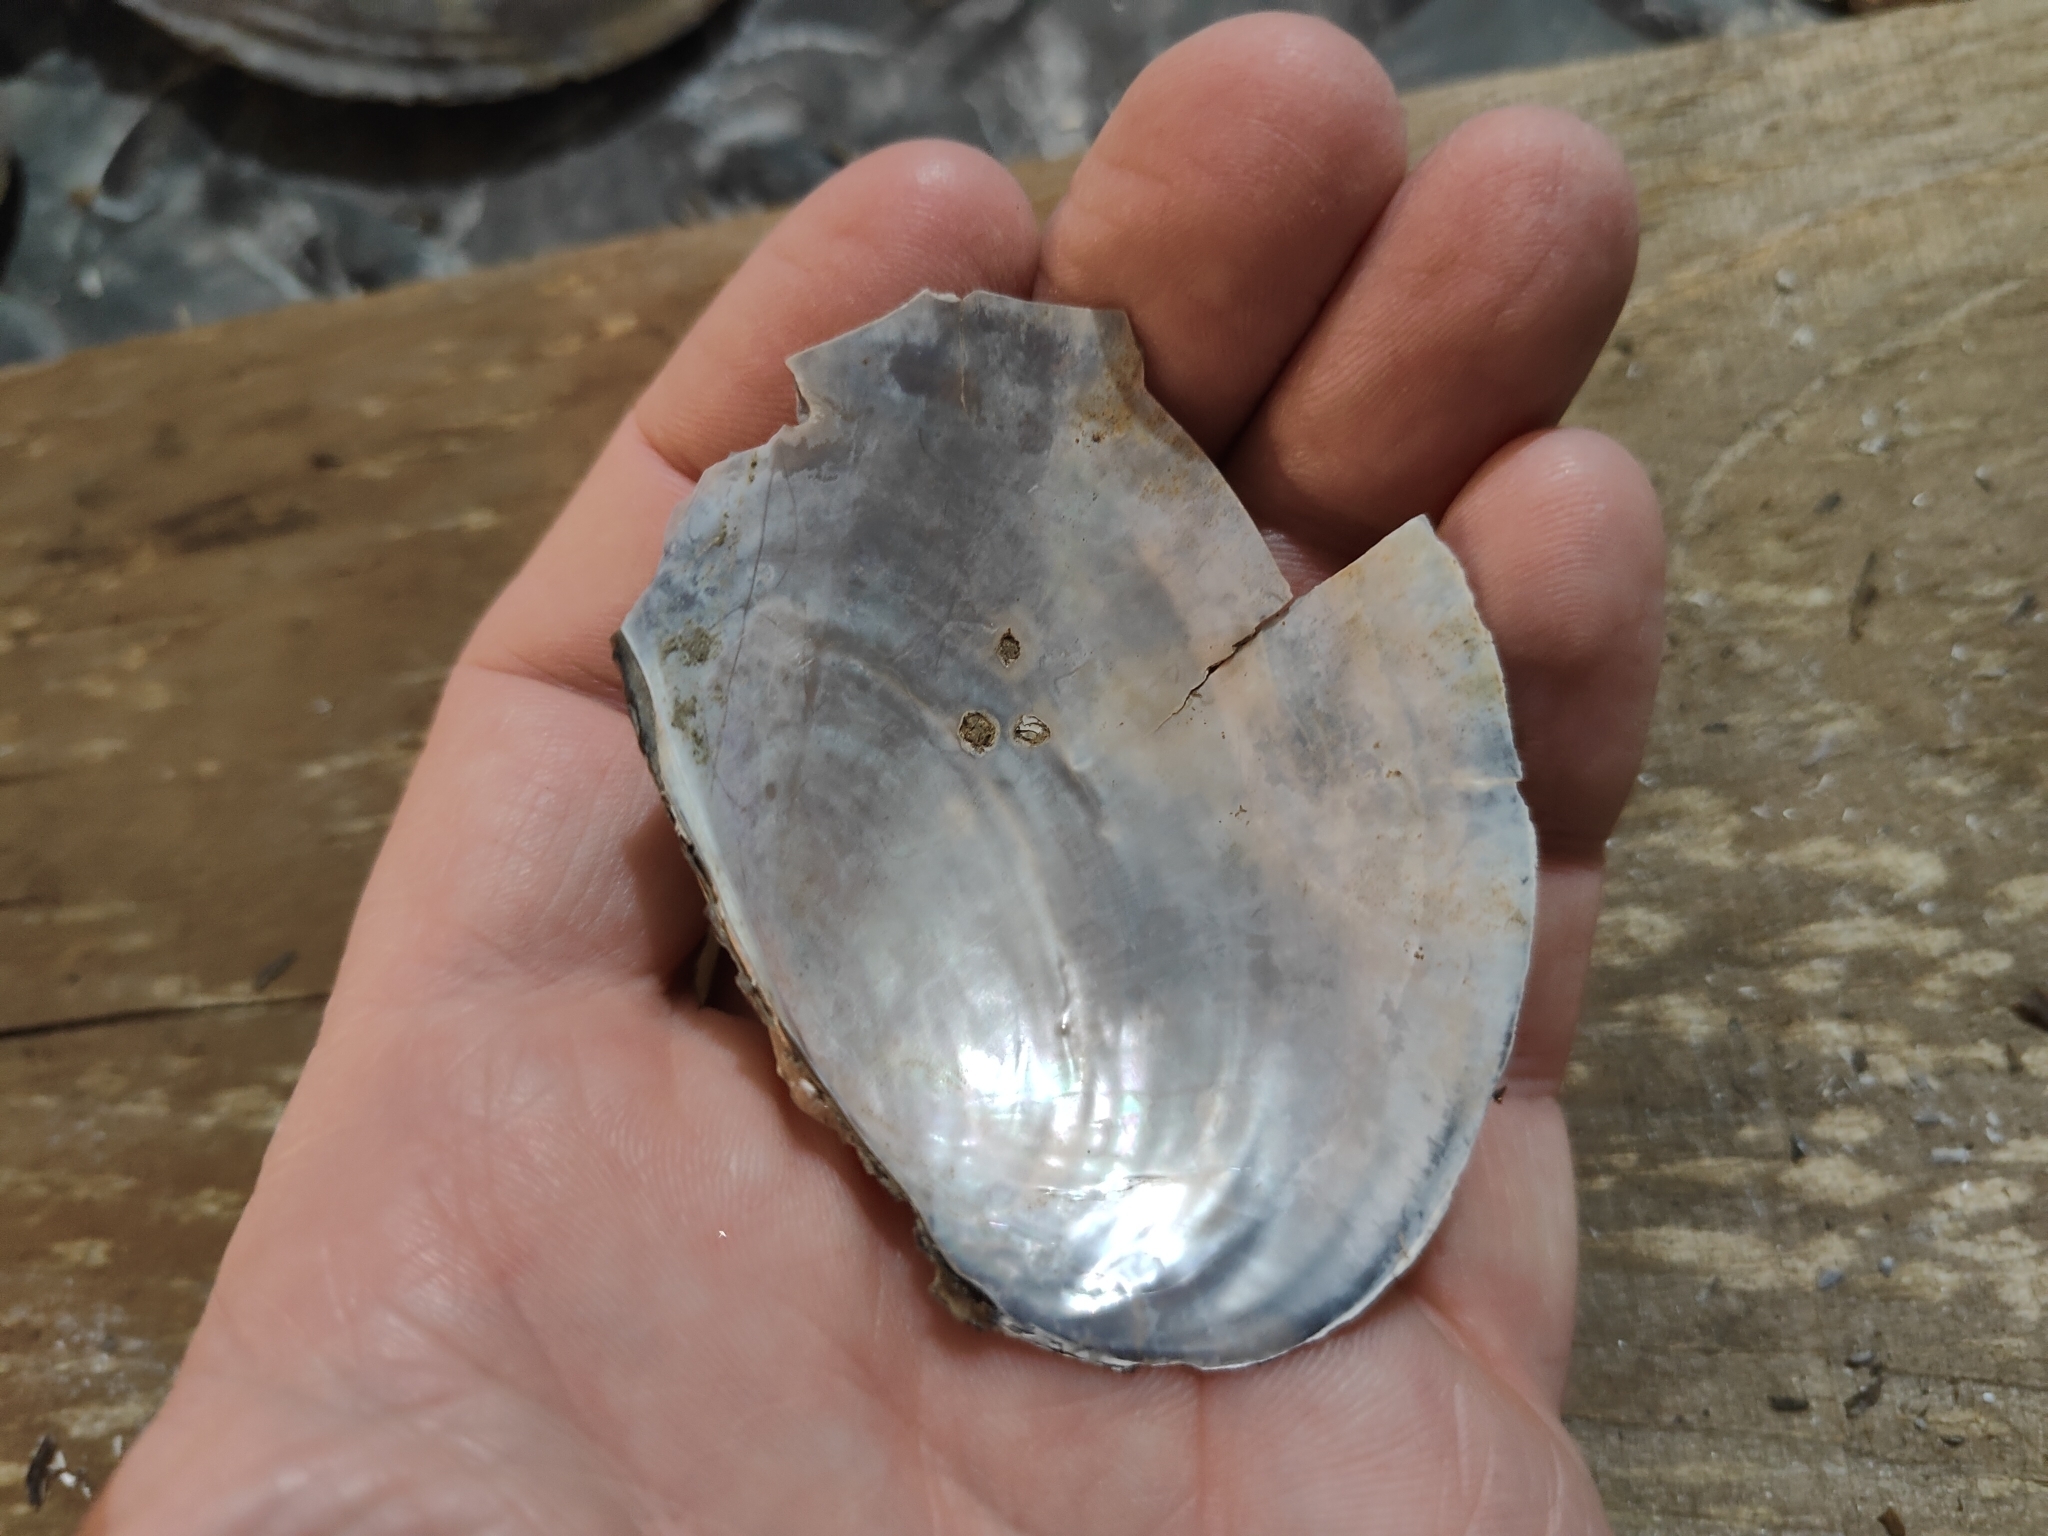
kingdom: Animalia
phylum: Mollusca
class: Bivalvia
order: Unionida
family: Unionidae
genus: Pyganodon
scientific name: Pyganodon grandis
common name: Giant floater
